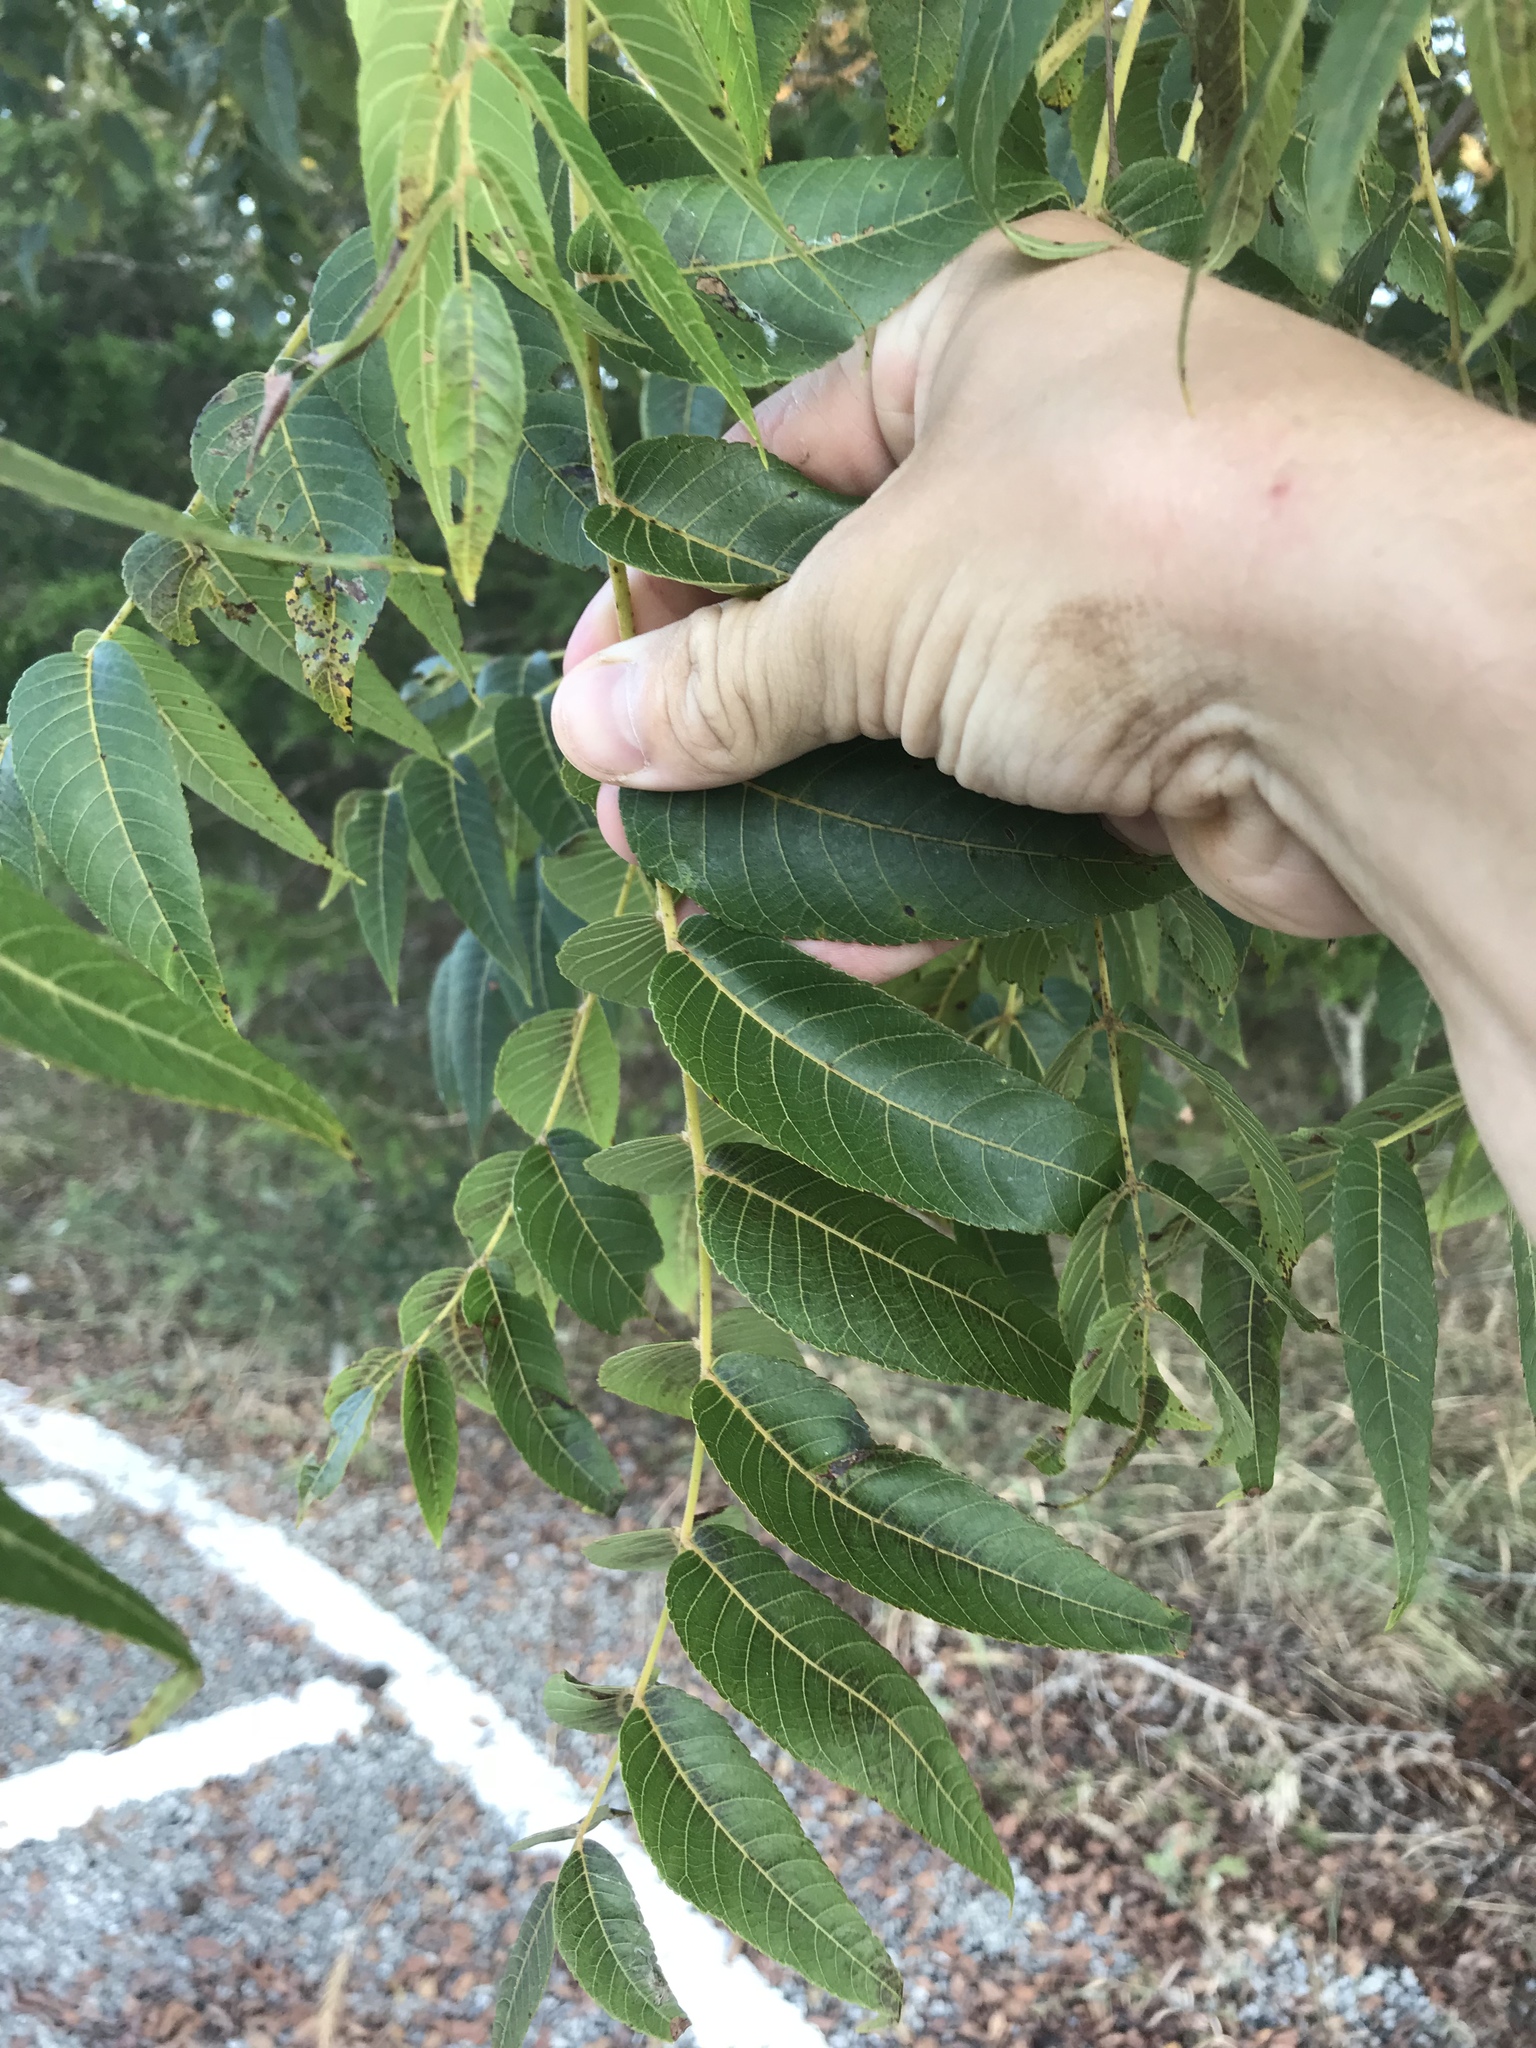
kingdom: Plantae
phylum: Tracheophyta
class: Magnoliopsida
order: Fagales
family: Juglandaceae
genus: Juglans
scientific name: Juglans nigra
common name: Black walnut
